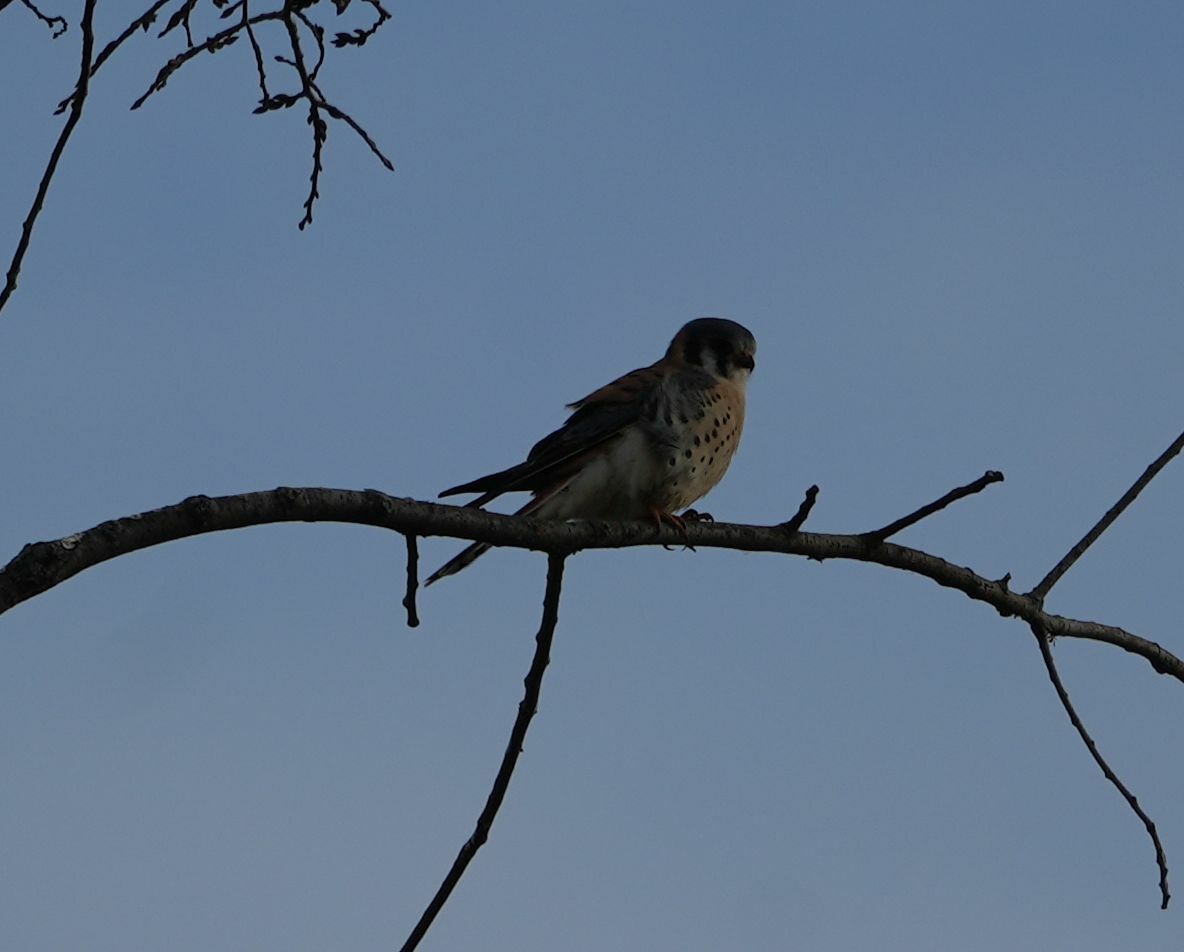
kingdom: Animalia
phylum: Chordata
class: Aves
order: Falconiformes
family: Falconidae
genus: Falco
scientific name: Falco sparverius
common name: American kestrel
